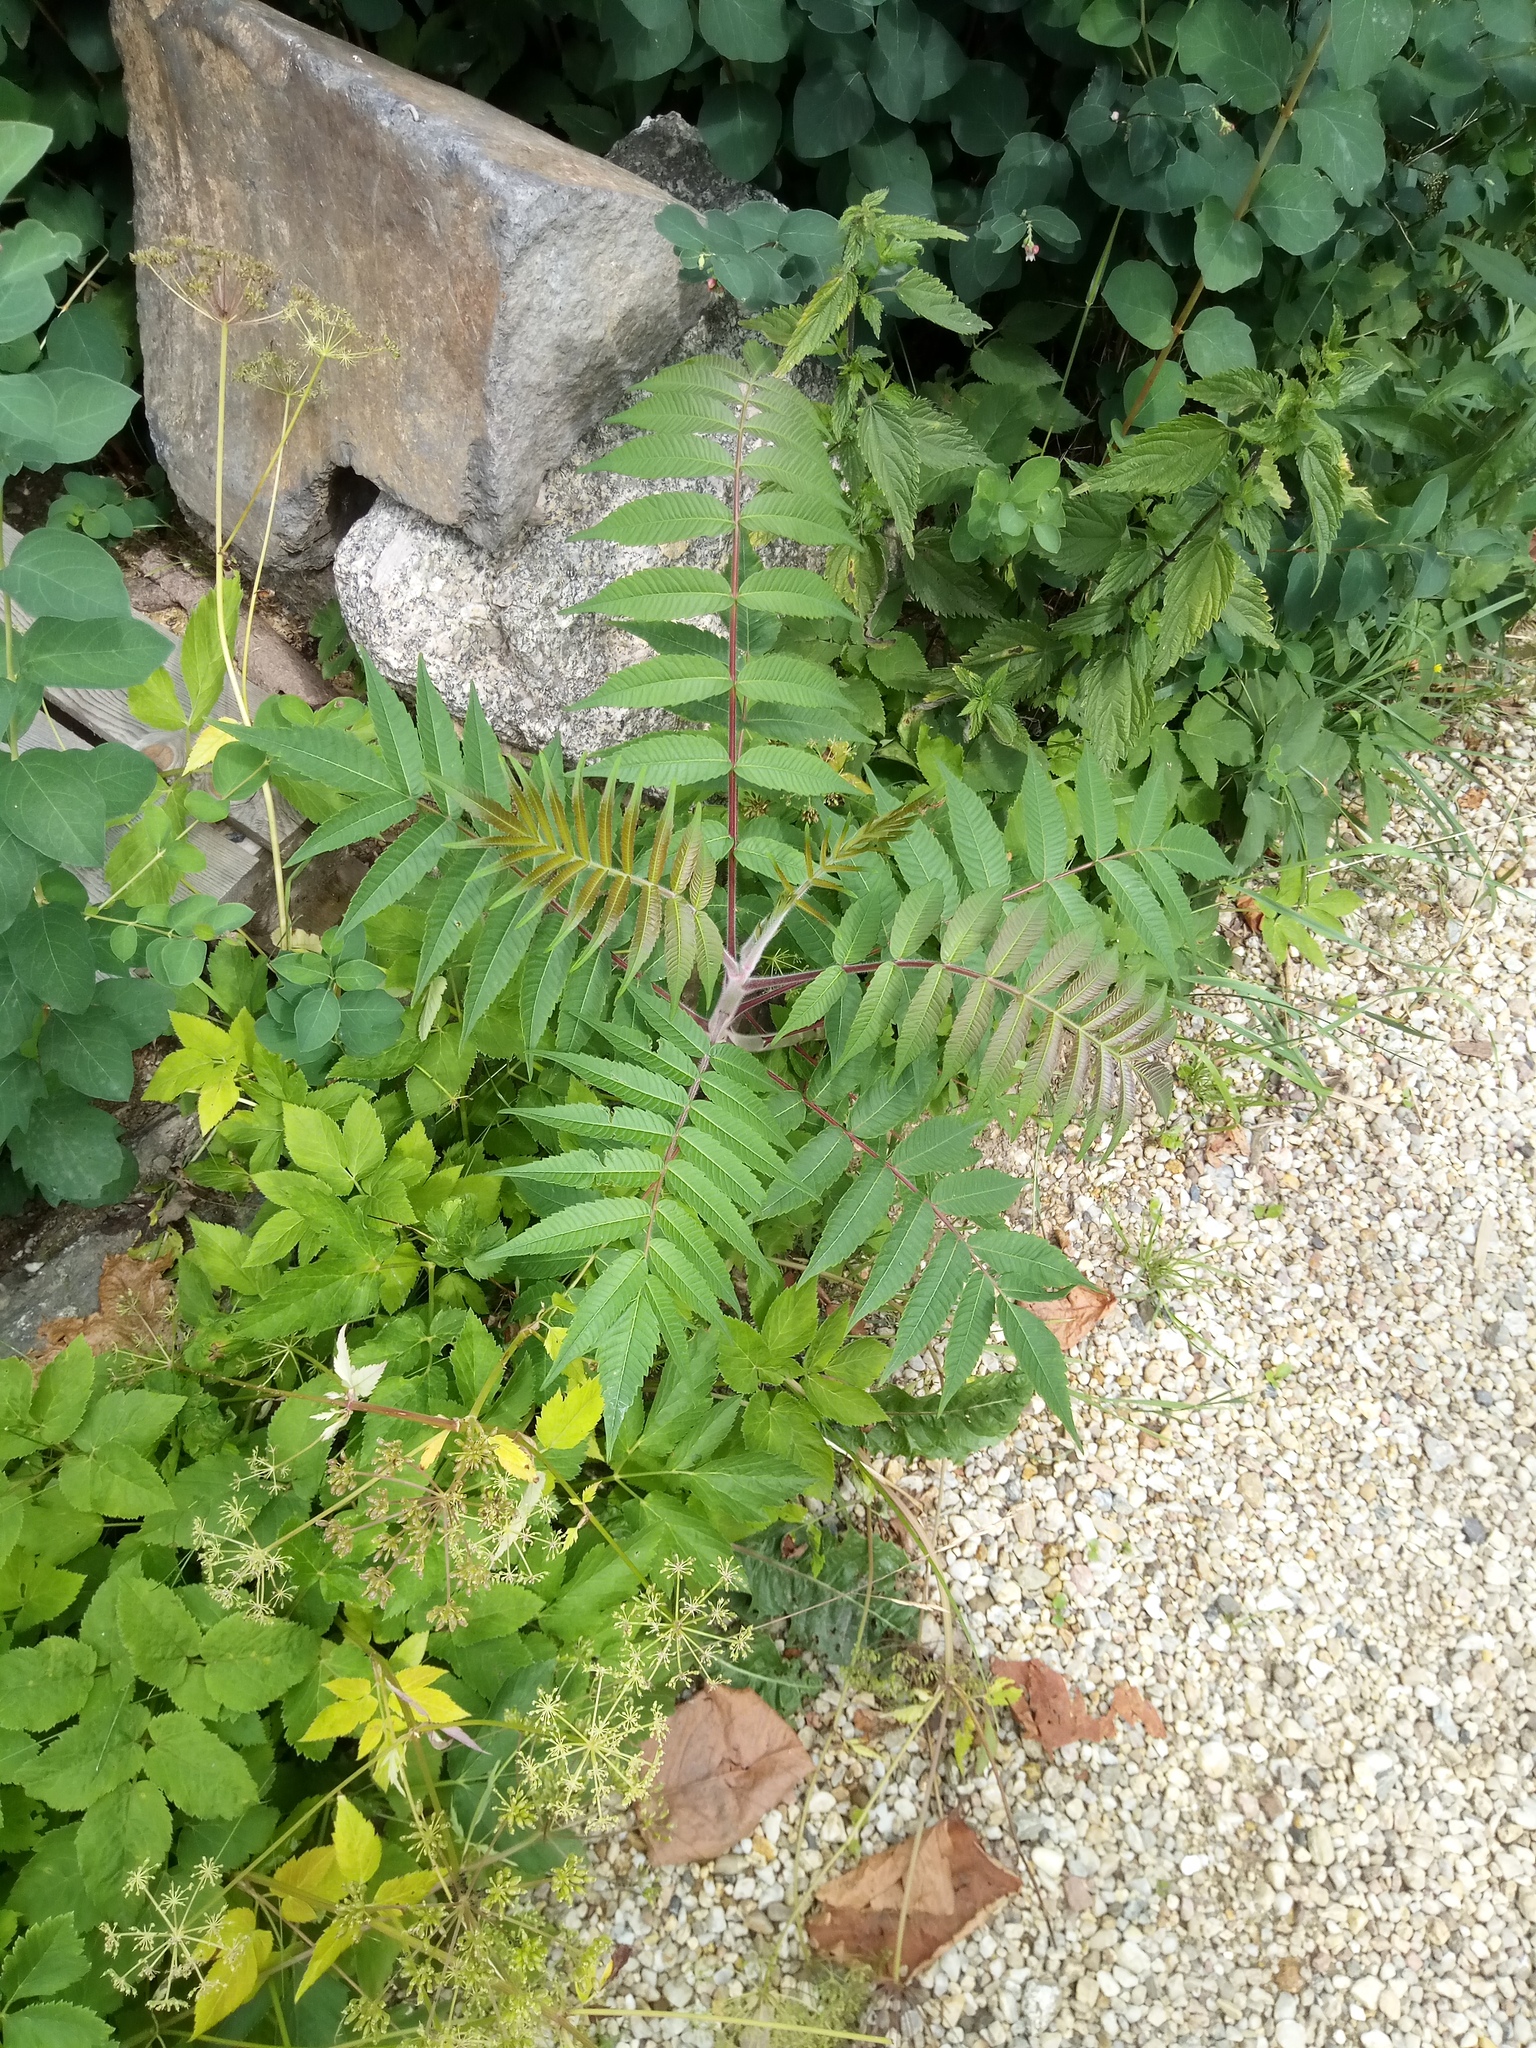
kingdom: Plantae
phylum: Tracheophyta
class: Magnoliopsida
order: Sapindales
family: Anacardiaceae
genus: Rhus
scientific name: Rhus typhina
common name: Staghorn sumac
